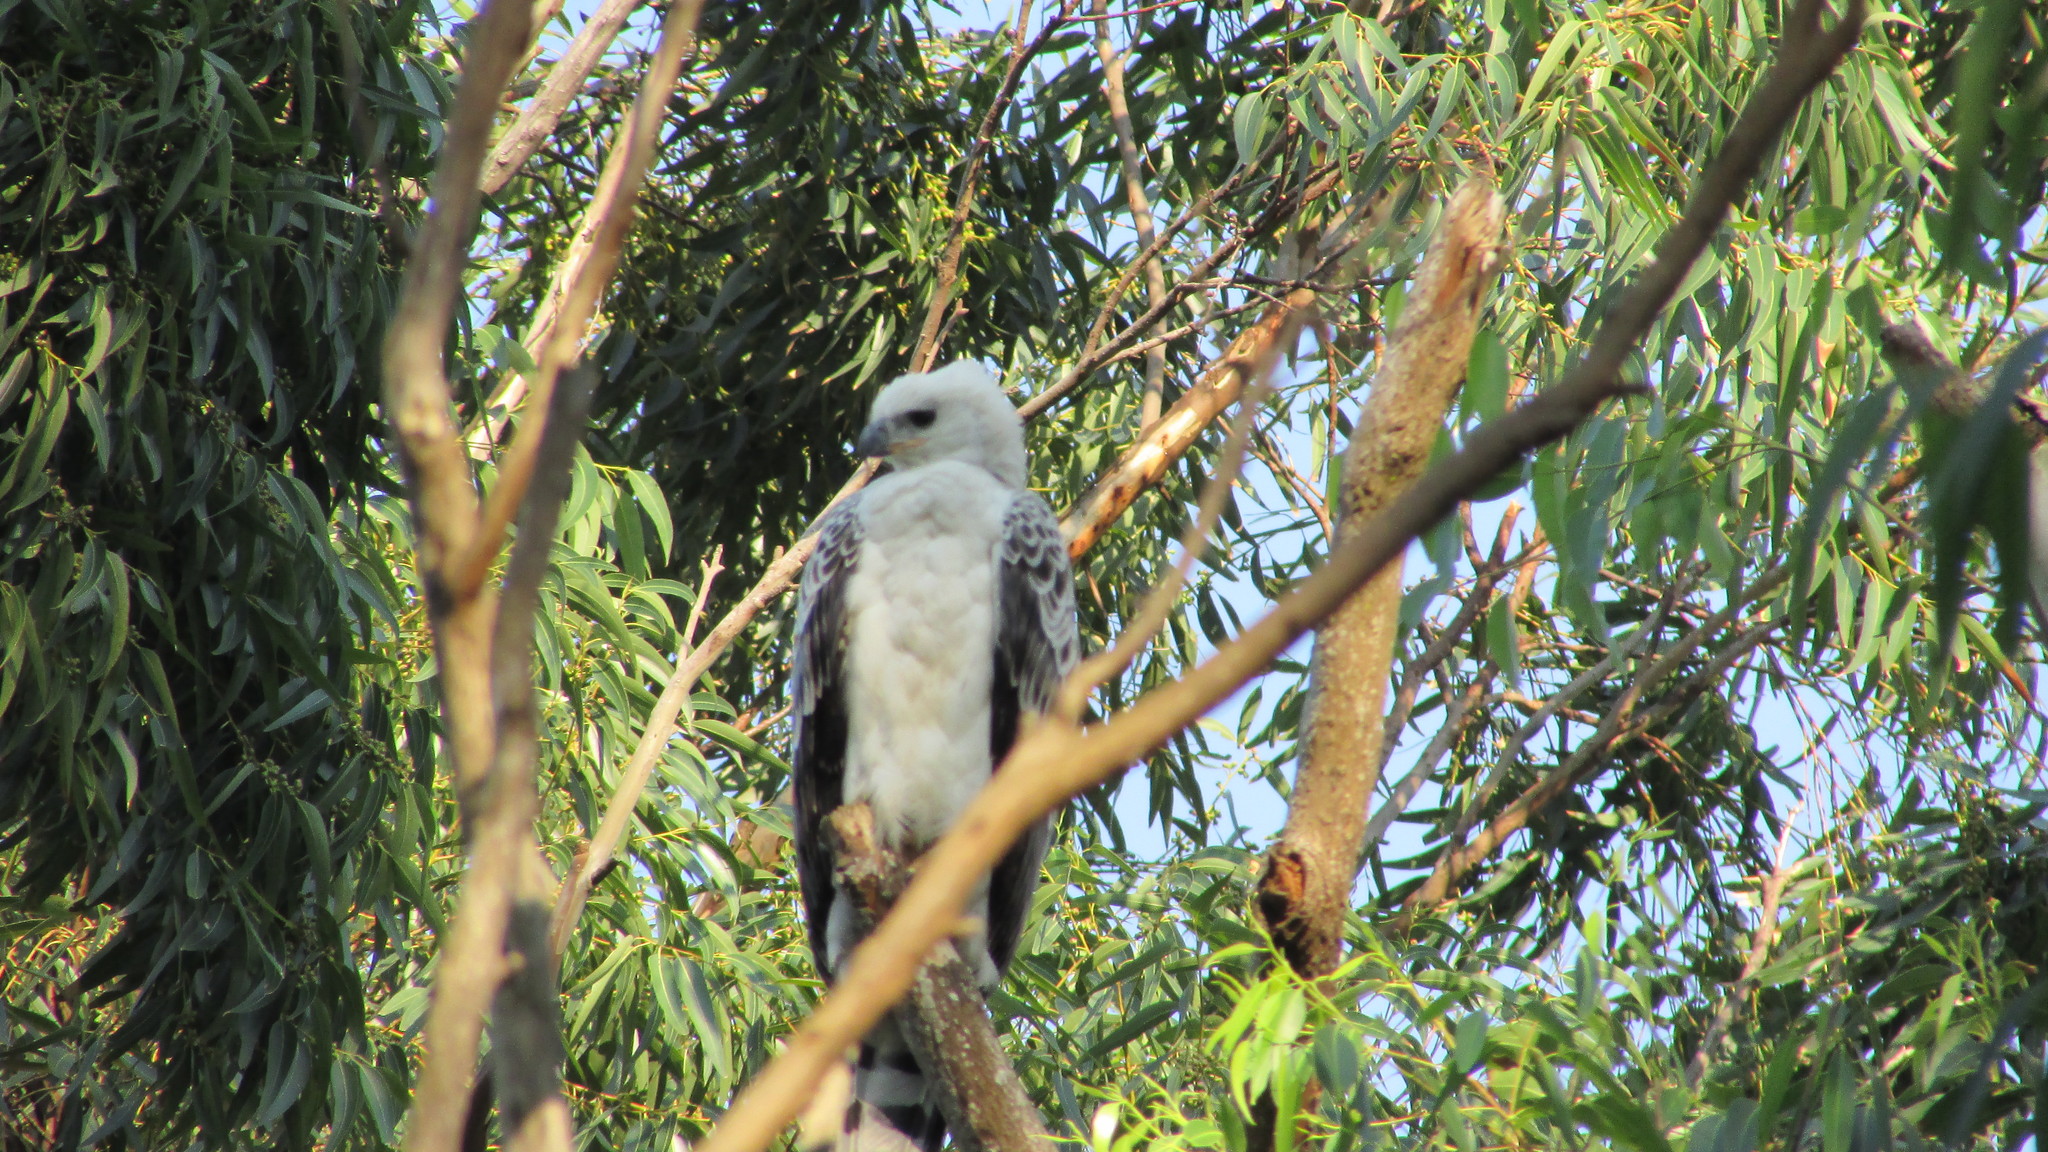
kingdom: Animalia
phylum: Chordata
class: Aves
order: Accipitriformes
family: Accipitridae
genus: Stephanoaetus
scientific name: Stephanoaetus coronatus
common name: Crowned eagle
